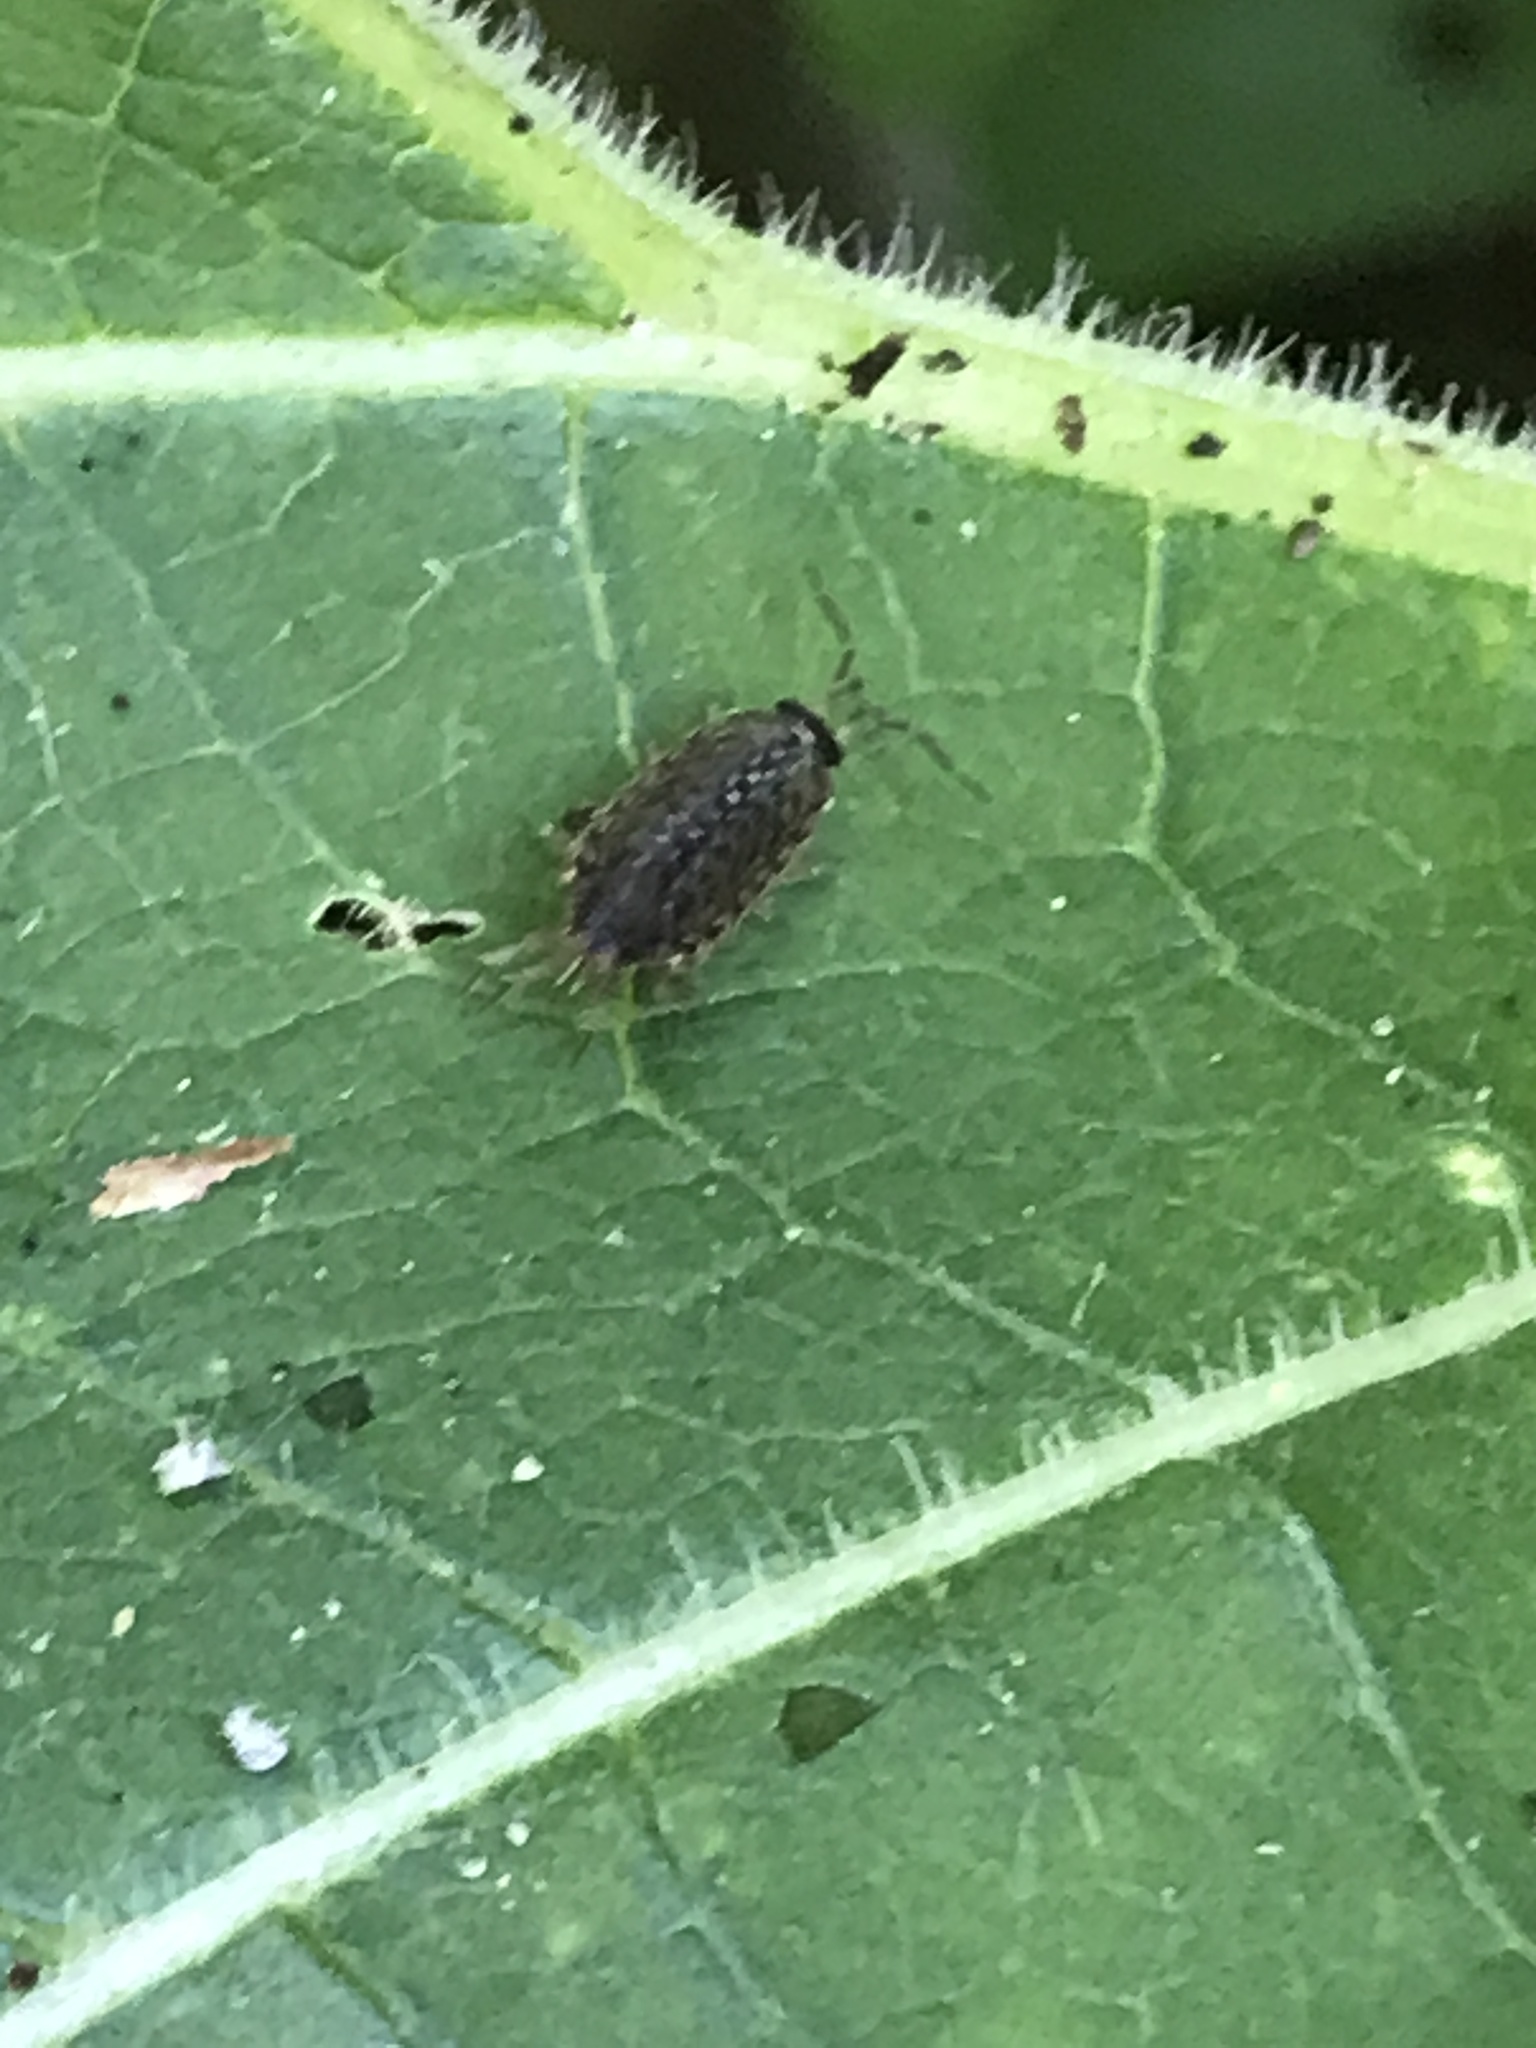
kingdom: Animalia
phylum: Arthropoda
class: Malacostraca
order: Isopoda
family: Philosciidae
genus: Philoscia
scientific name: Philoscia muscorum
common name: Common striped woodlouse
